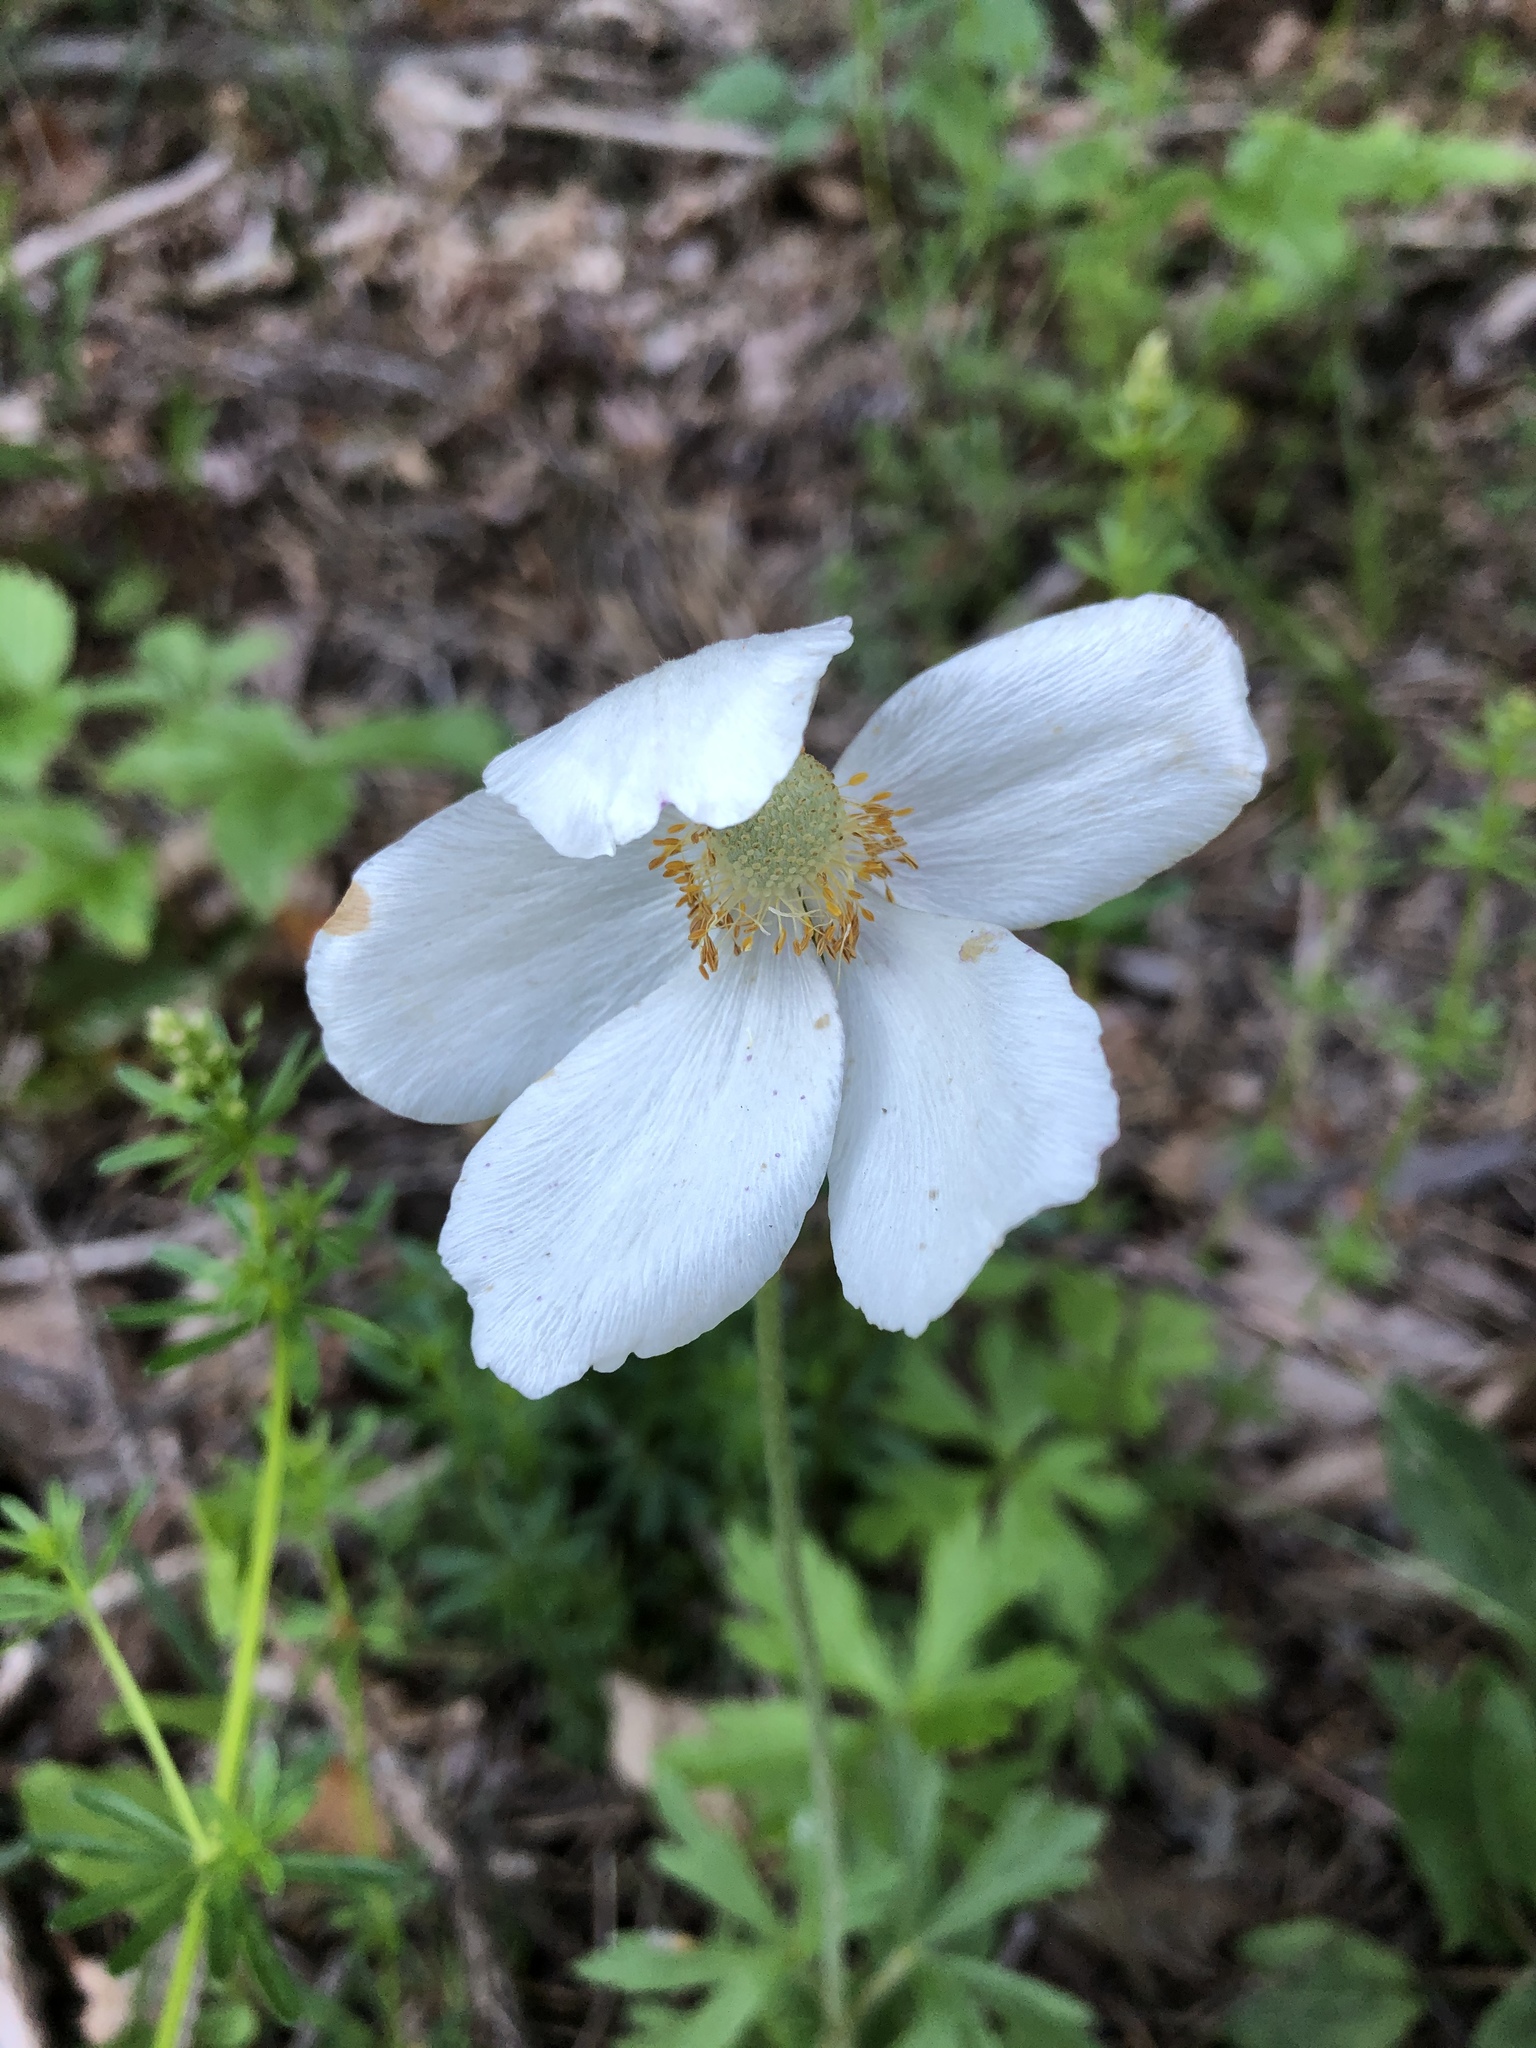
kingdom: Plantae
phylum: Tracheophyta
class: Magnoliopsida
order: Ranunculales
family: Ranunculaceae
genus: Anemone
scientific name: Anemone sylvestris
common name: Snowdrop anemone
